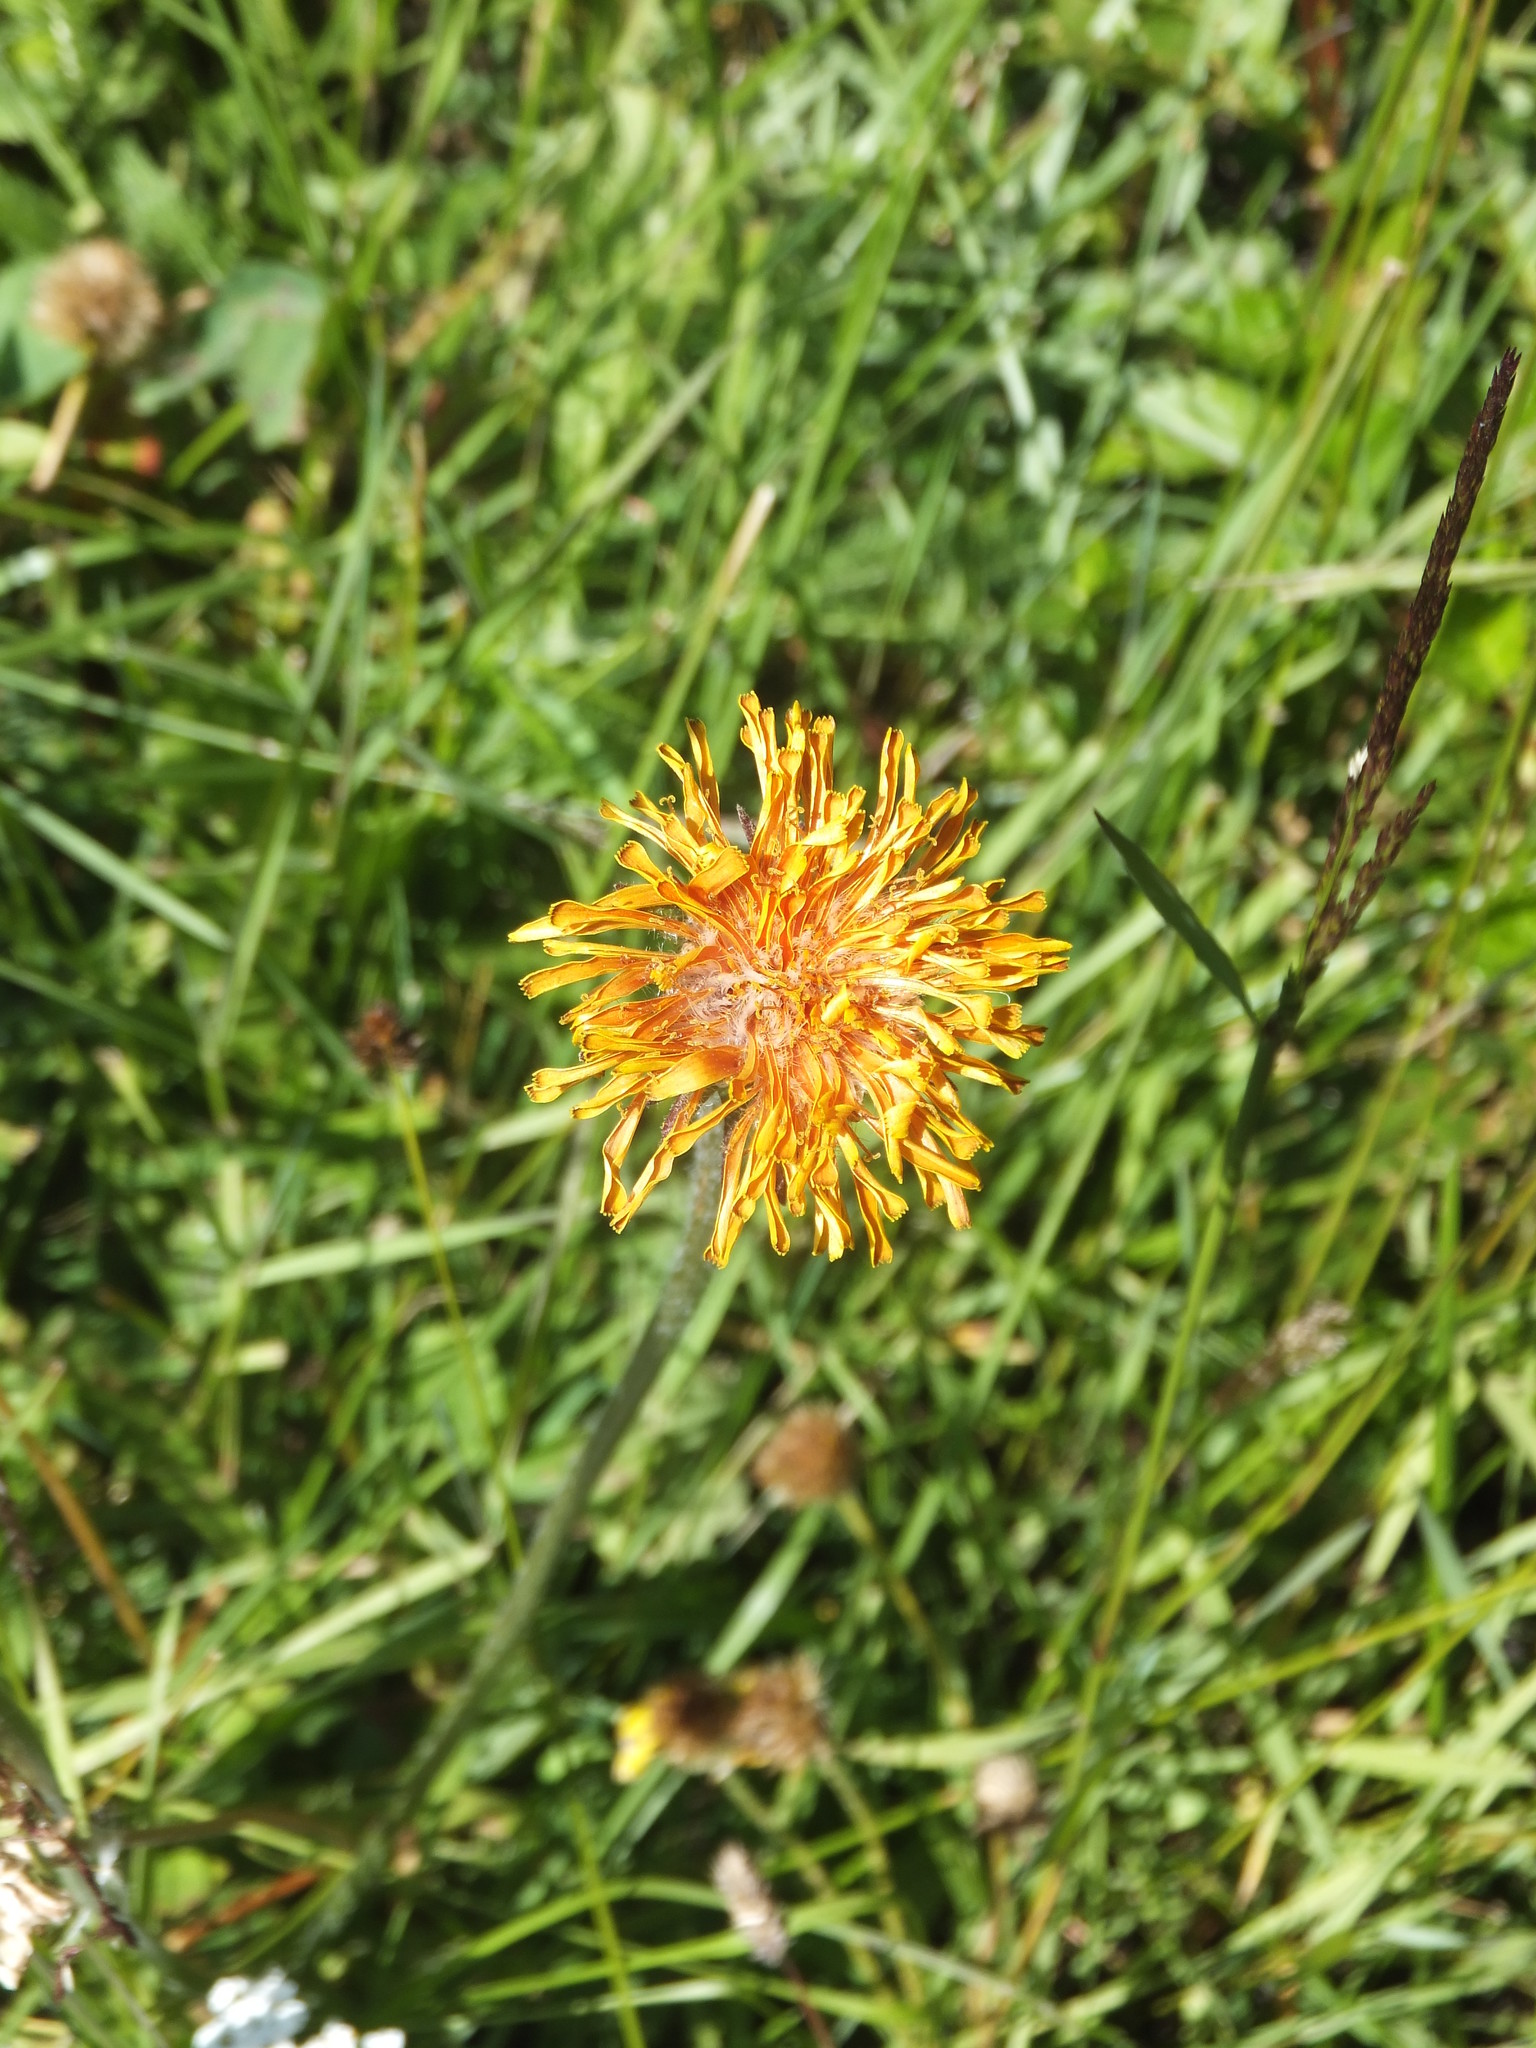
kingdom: Plantae
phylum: Tracheophyta
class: Magnoliopsida
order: Asterales
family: Asteraceae
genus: Agoseris
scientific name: Agoseris aurantiaca
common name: Mountain agoseris
